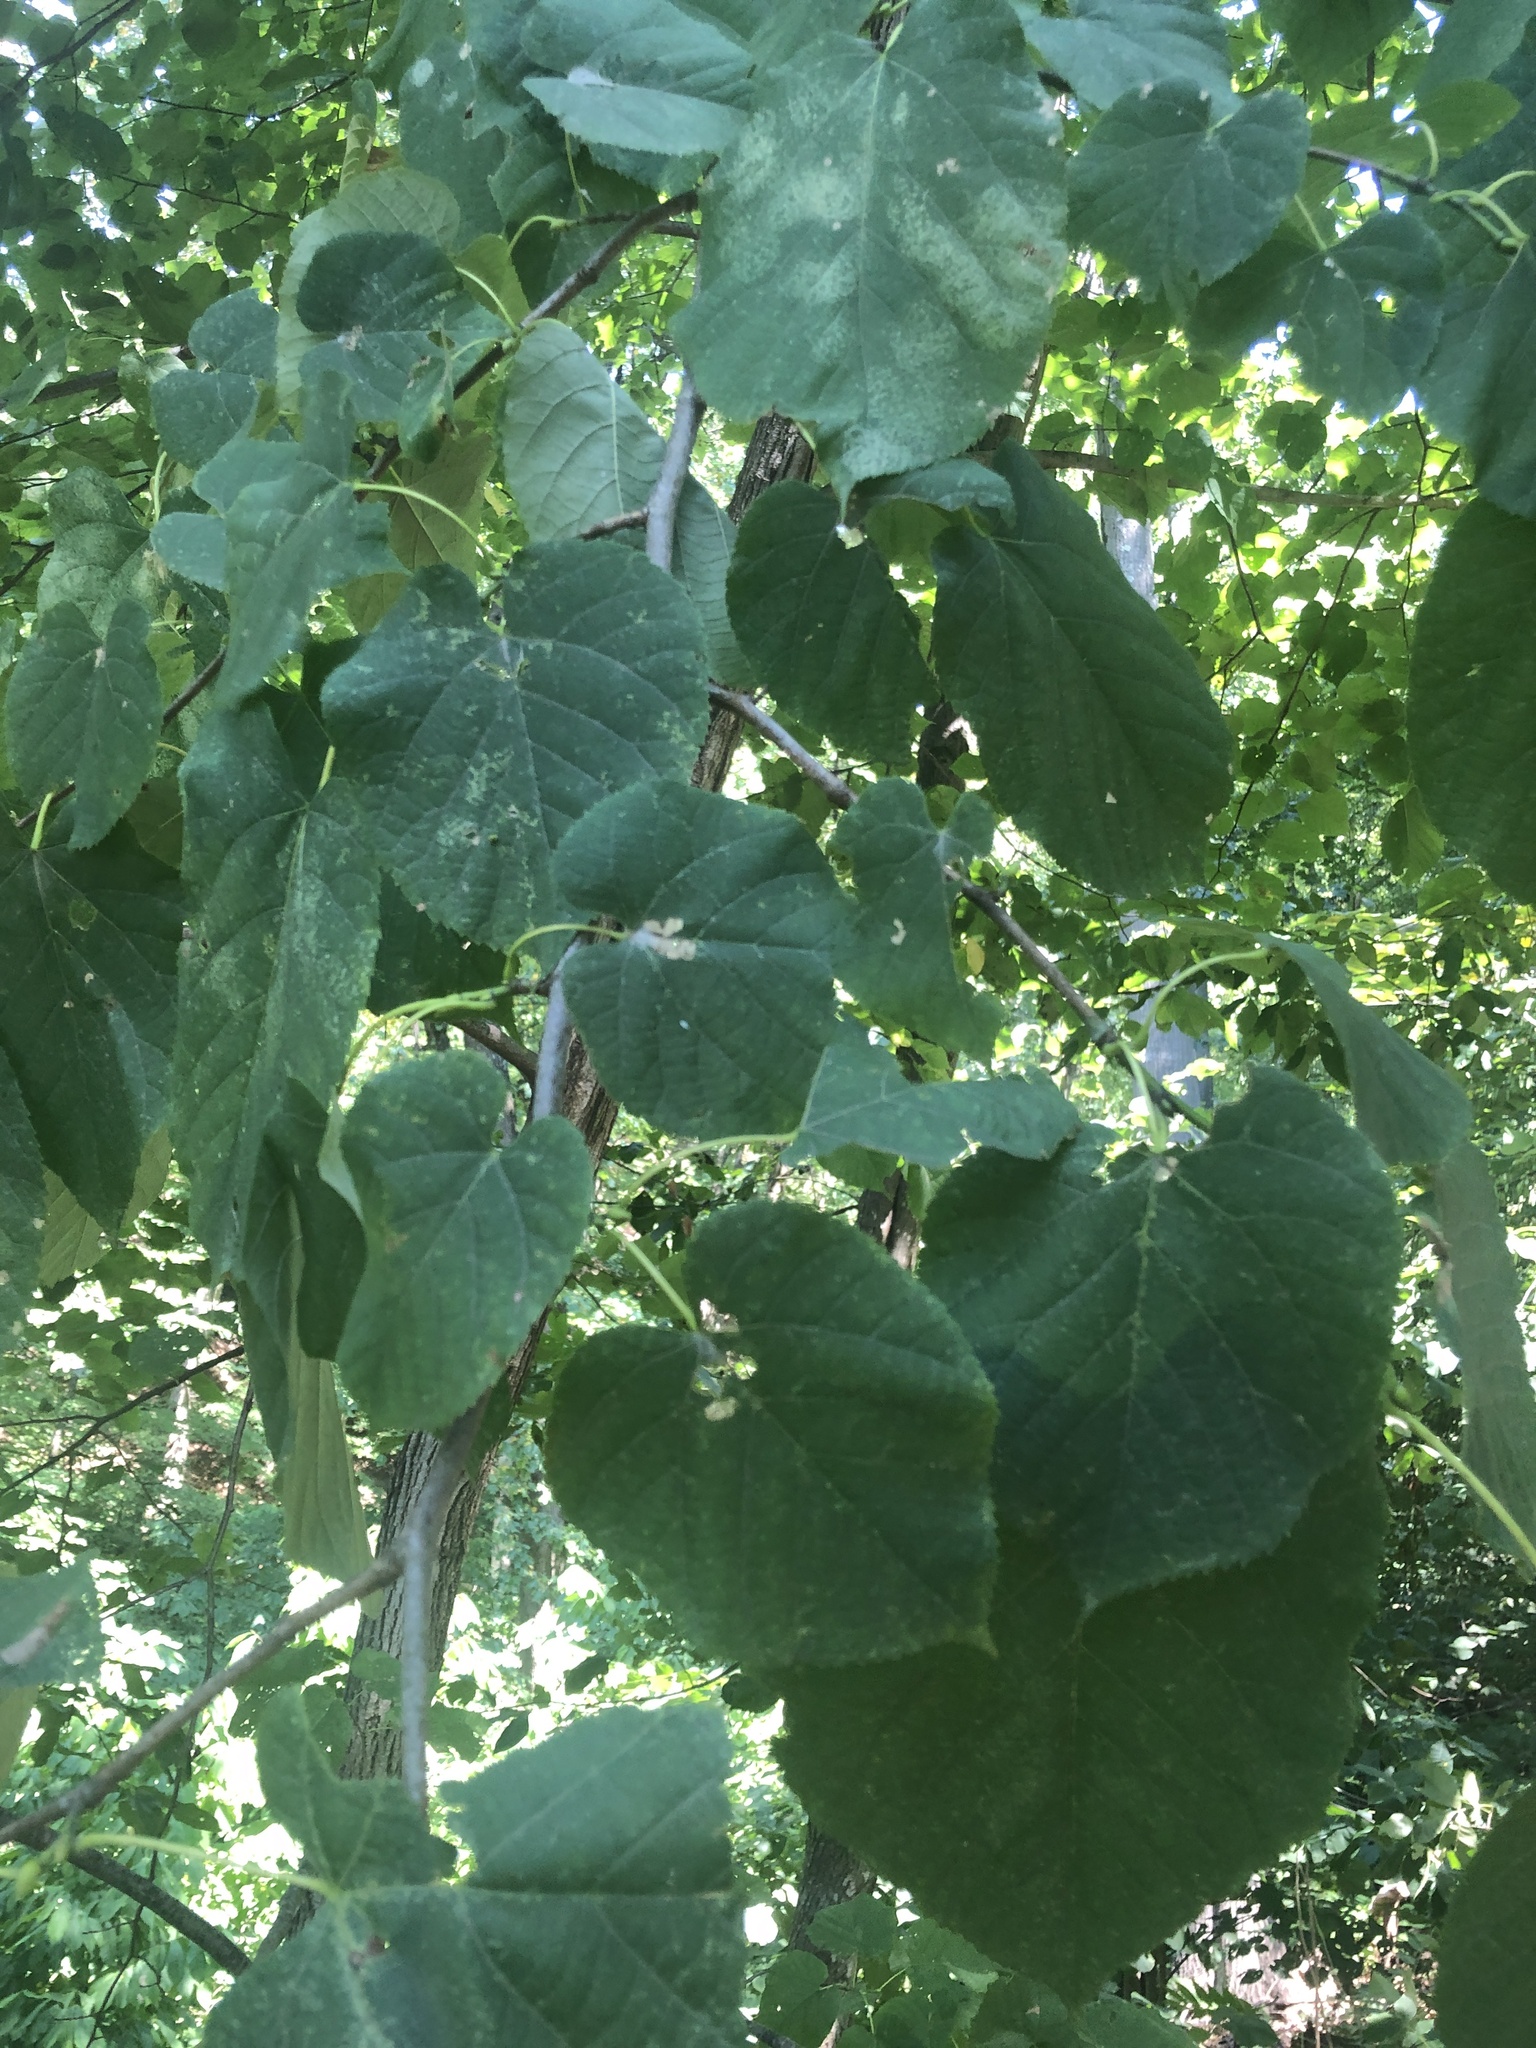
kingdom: Plantae
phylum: Tracheophyta
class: Magnoliopsida
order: Malvales
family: Malvaceae
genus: Tilia
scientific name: Tilia americana
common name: Basswood
